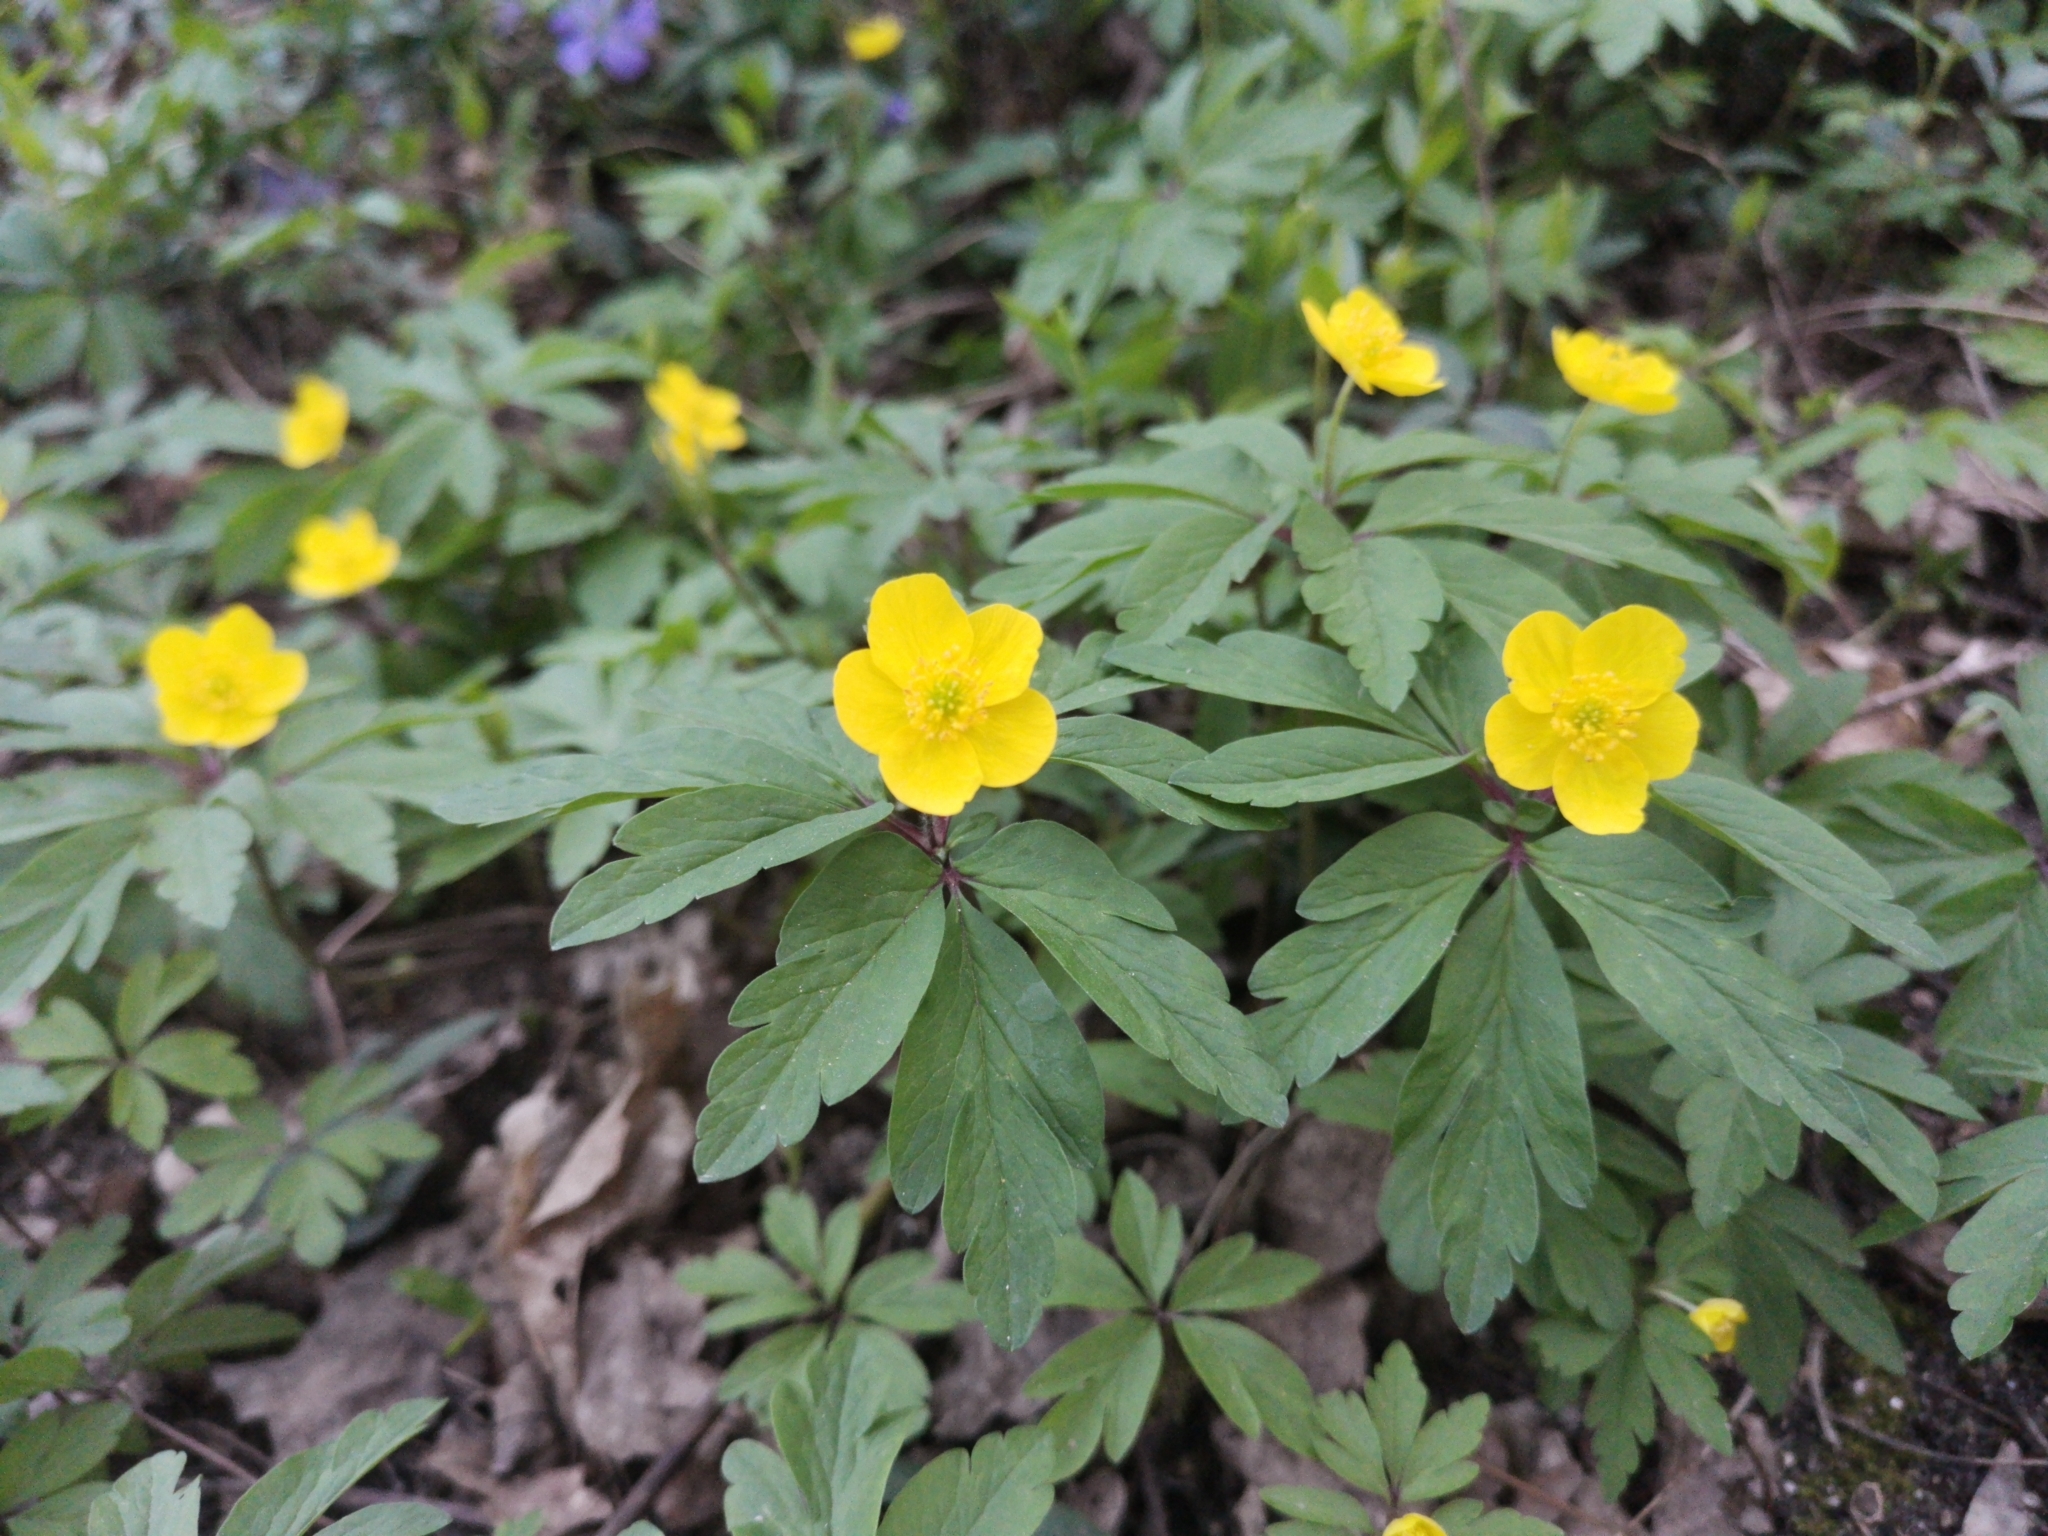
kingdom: Plantae
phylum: Tracheophyta
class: Magnoliopsida
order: Ranunculales
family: Ranunculaceae
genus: Anemone
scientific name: Anemone ranunculoides
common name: Yellow anemone
